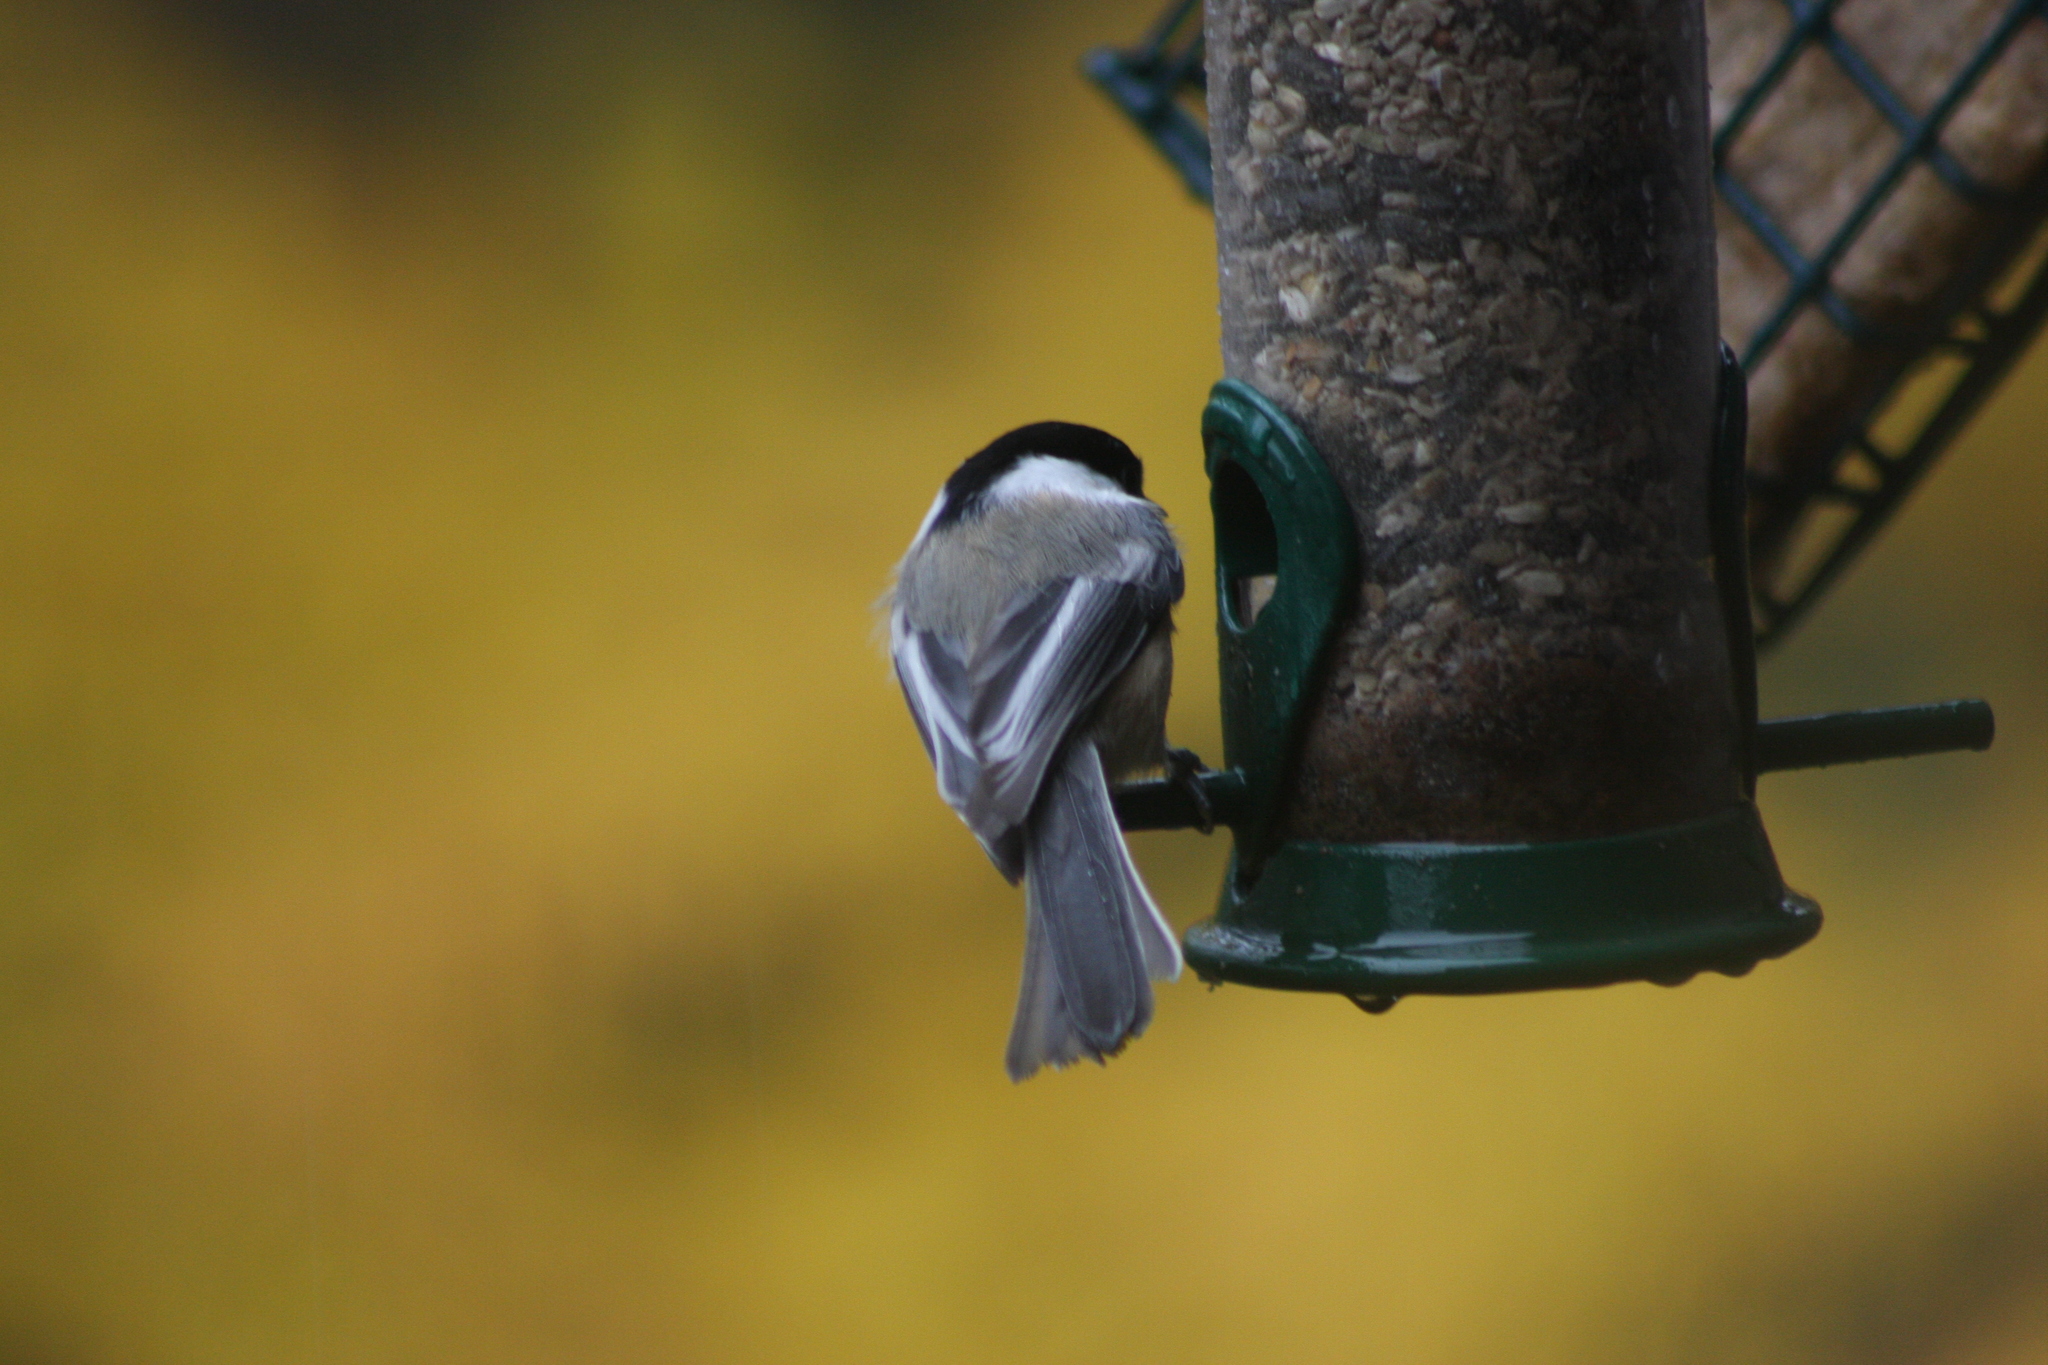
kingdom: Animalia
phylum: Chordata
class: Aves
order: Passeriformes
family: Paridae
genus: Poecile
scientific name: Poecile atricapillus
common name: Black-capped chickadee
